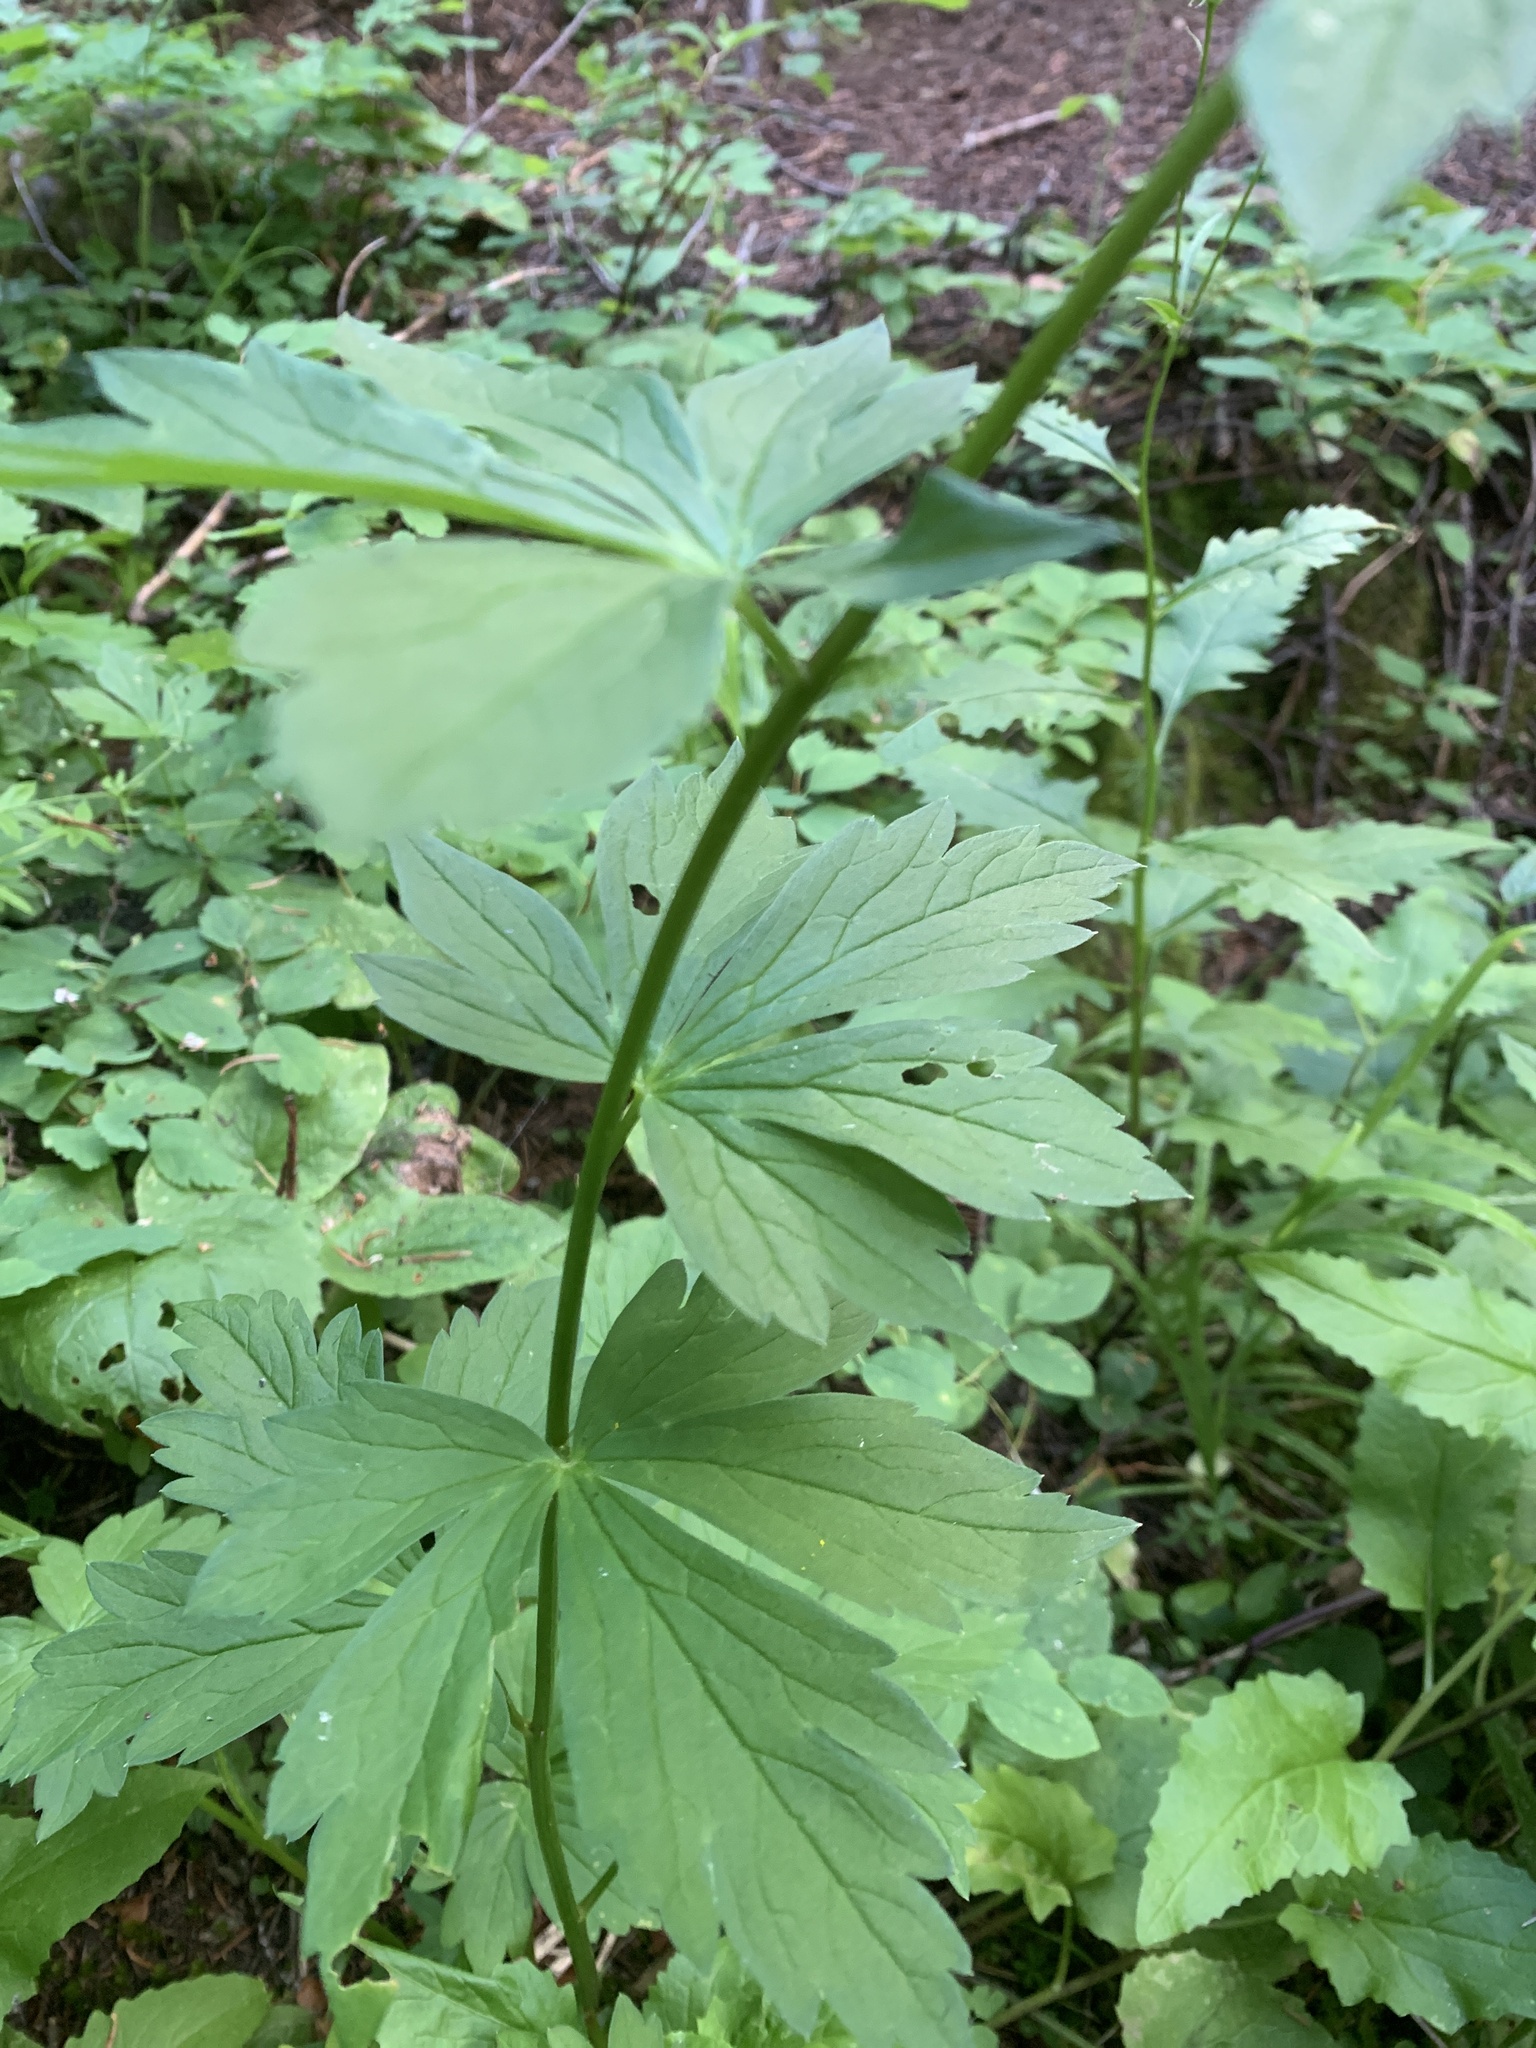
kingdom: Plantae
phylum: Tracheophyta
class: Magnoliopsida
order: Ranunculales
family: Ranunculaceae
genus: Aconitum
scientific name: Aconitum columbianum
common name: Columbia aconite
